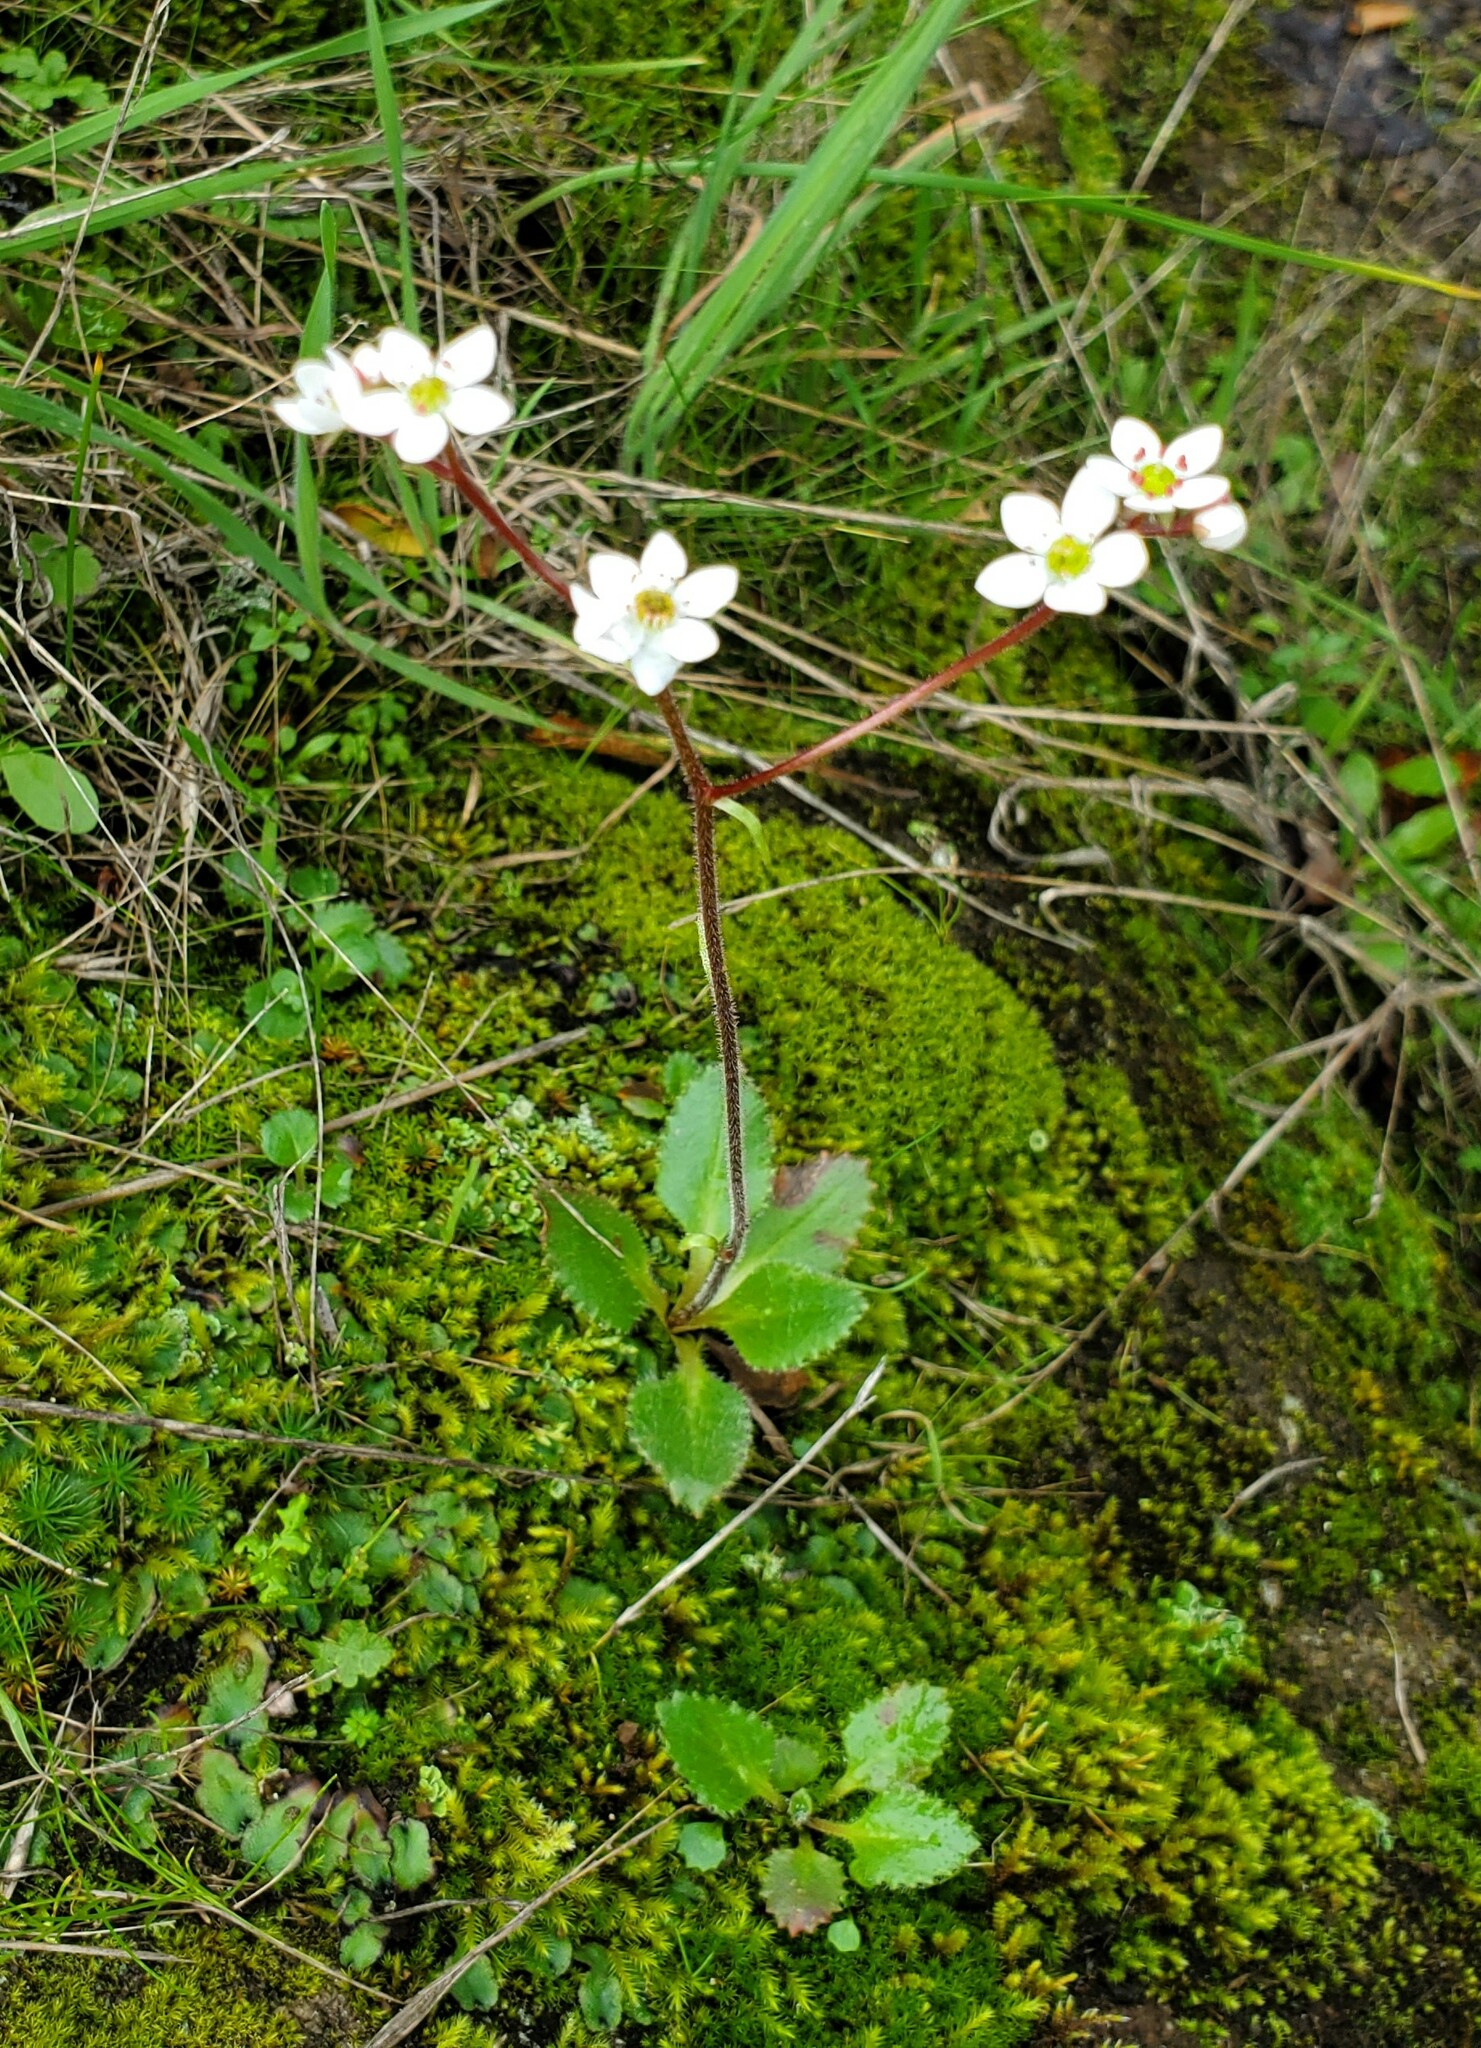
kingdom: Plantae
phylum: Tracheophyta
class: Magnoliopsida
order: Saxifragales
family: Saxifragaceae
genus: Micranthes
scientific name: Micranthes californica
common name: California saxifrage
